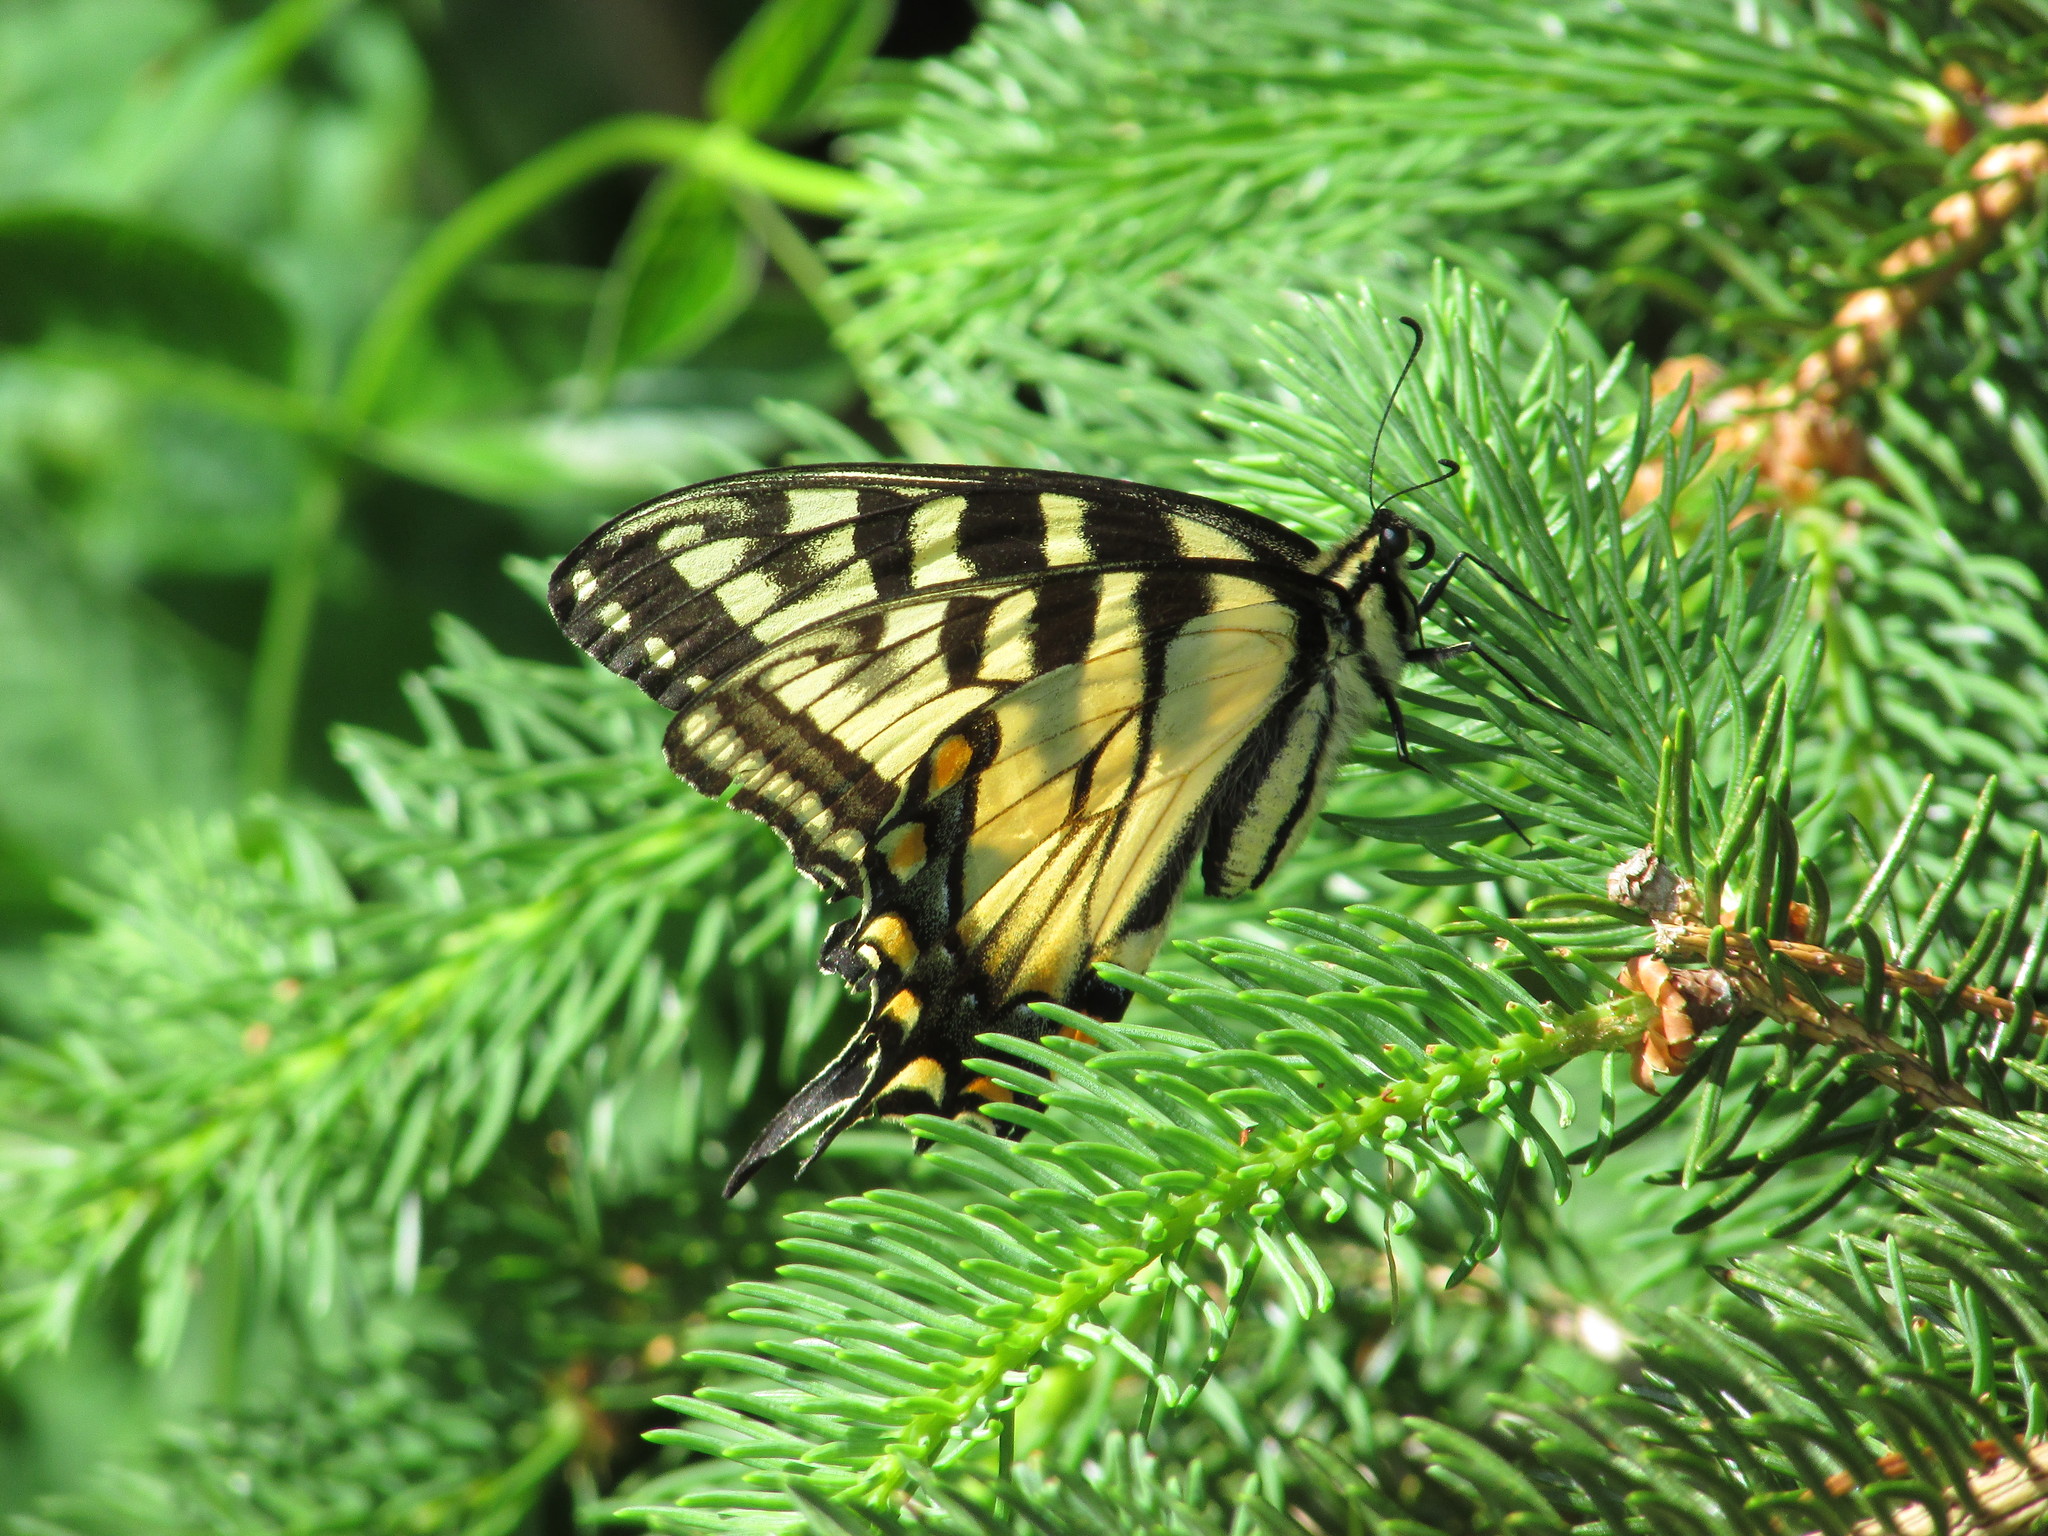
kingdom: Animalia
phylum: Arthropoda
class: Insecta
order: Lepidoptera
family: Papilionidae
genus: Papilio
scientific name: Papilio glaucus
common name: Tiger swallowtail
